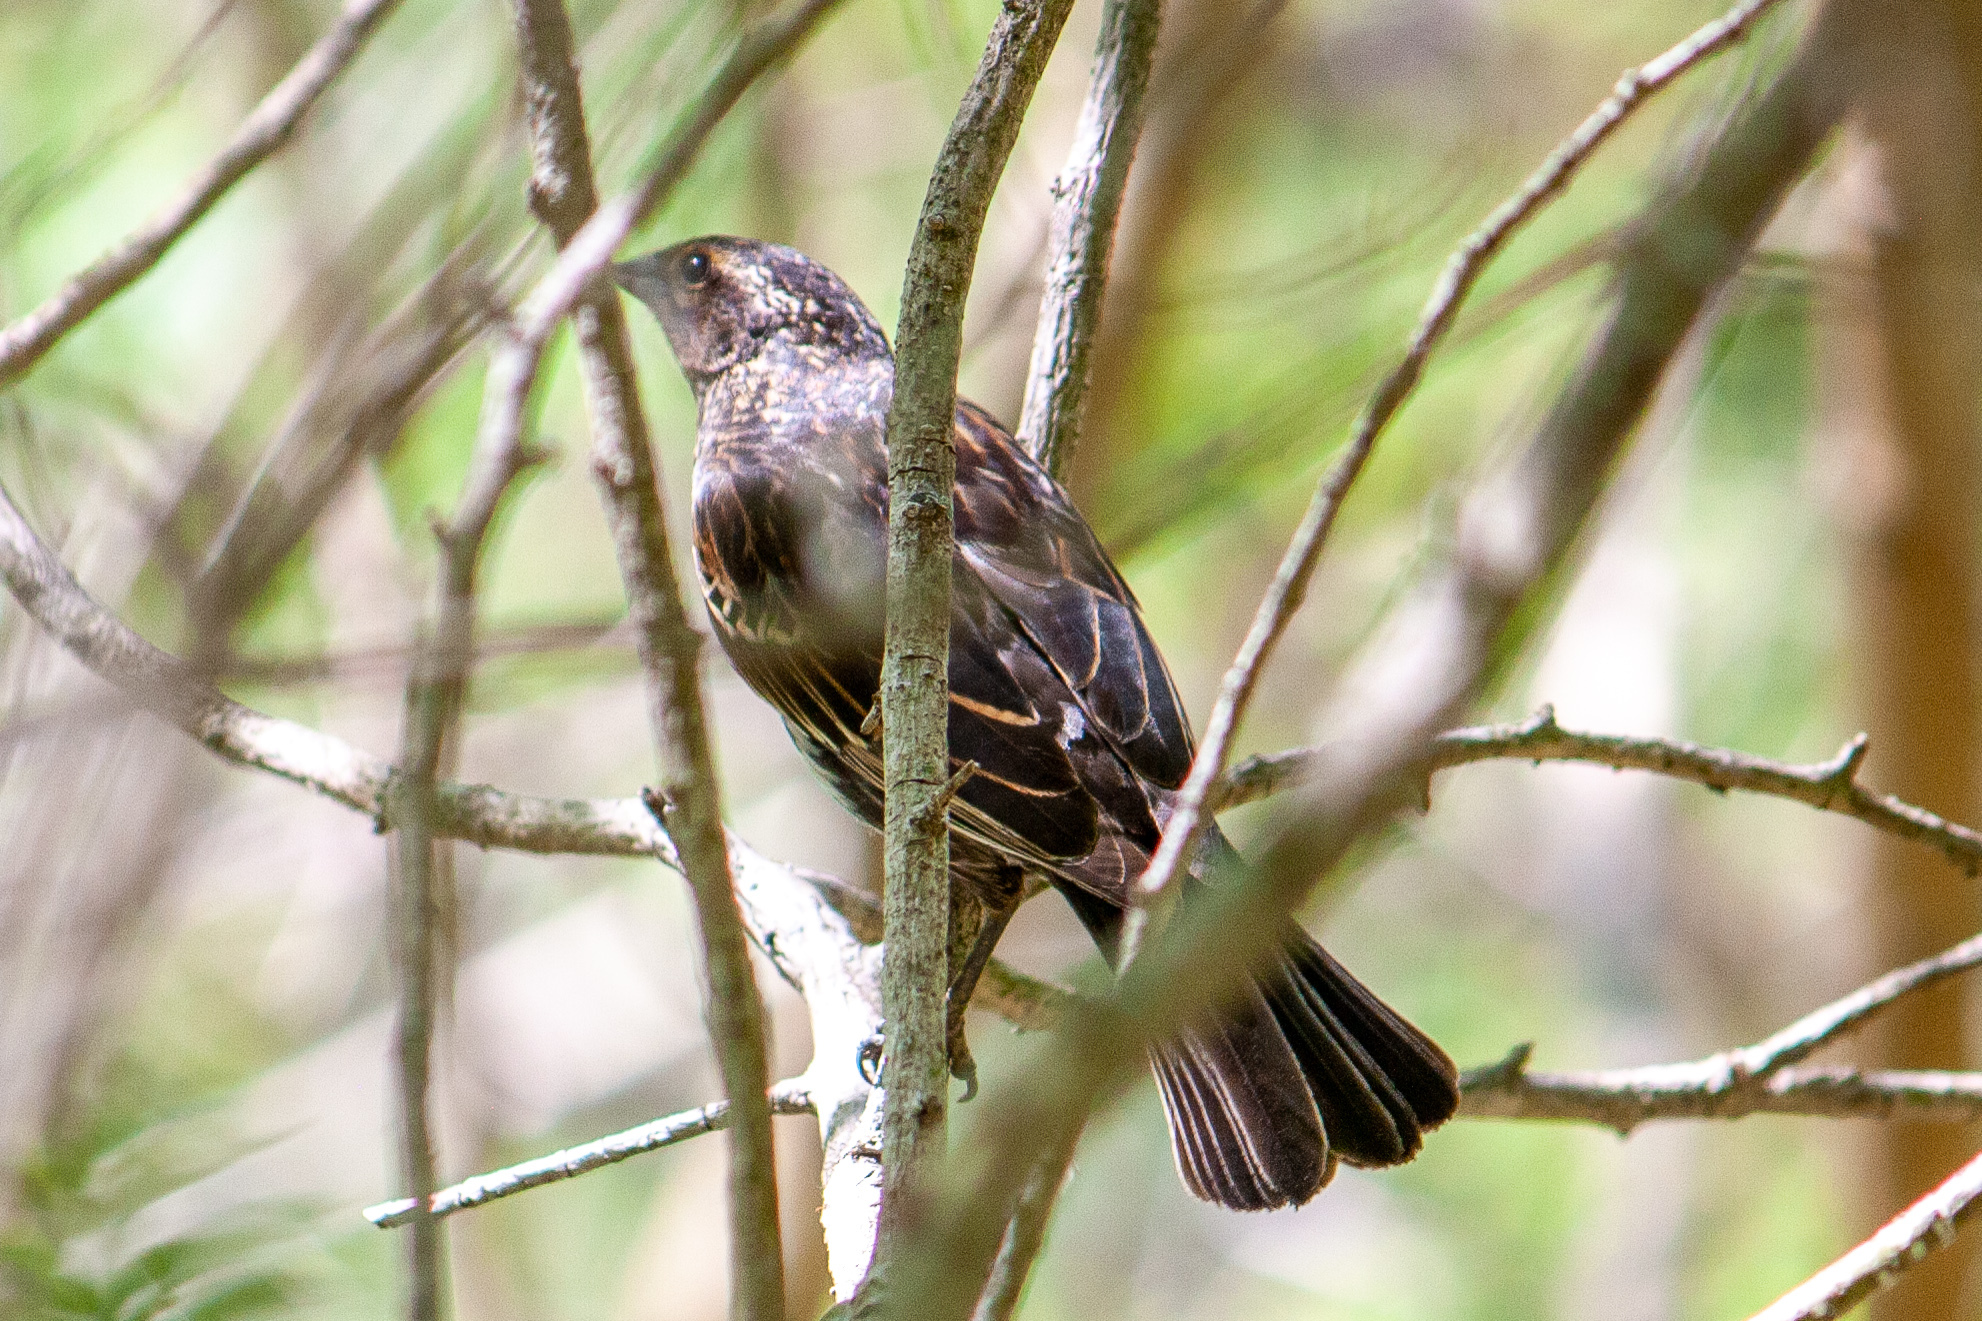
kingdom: Animalia
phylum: Chordata
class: Aves
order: Passeriformes
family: Icteridae
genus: Agelaius
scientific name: Agelaius phoeniceus
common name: Red-winged blackbird
